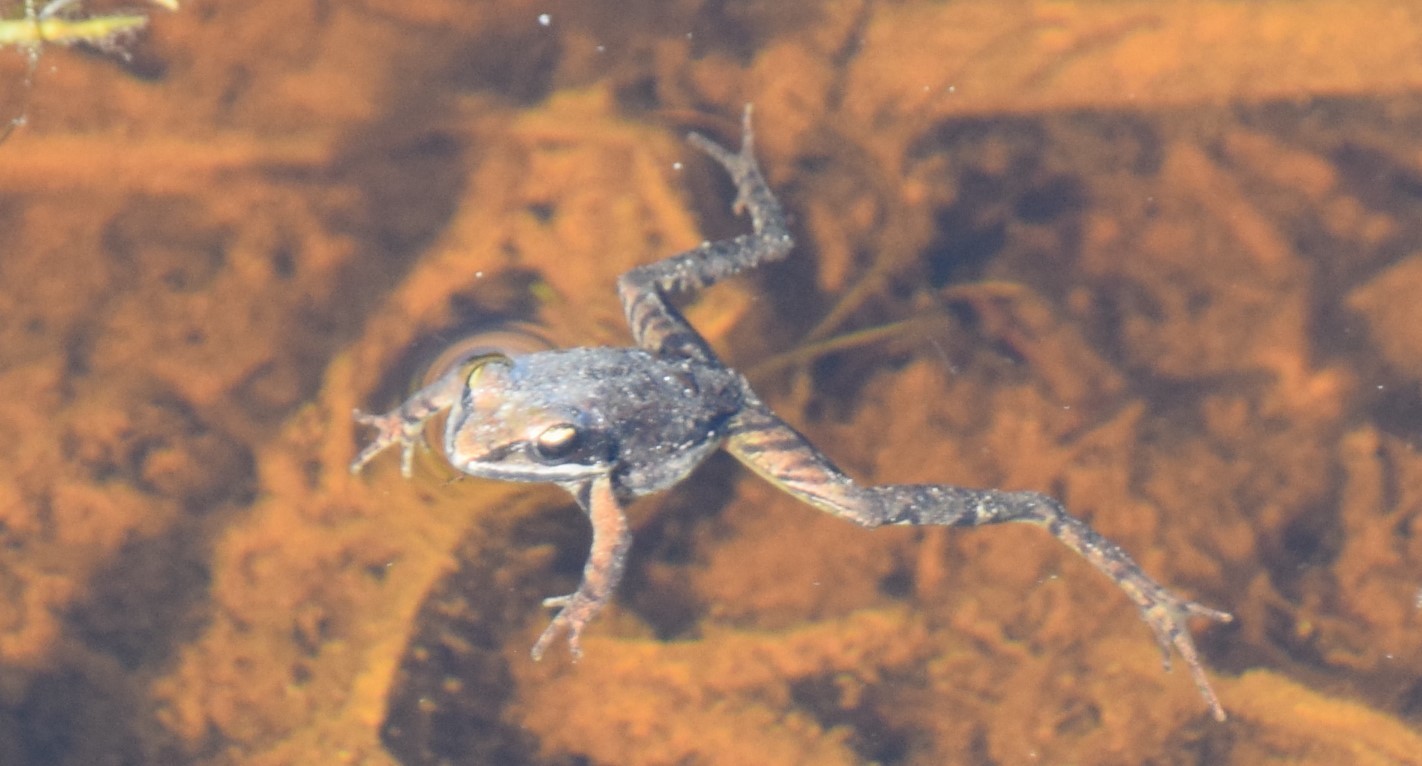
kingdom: Animalia
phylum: Chordata
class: Amphibia
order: Anura
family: Ranidae
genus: Lithobates
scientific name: Lithobates sylvaticus
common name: Wood frog
